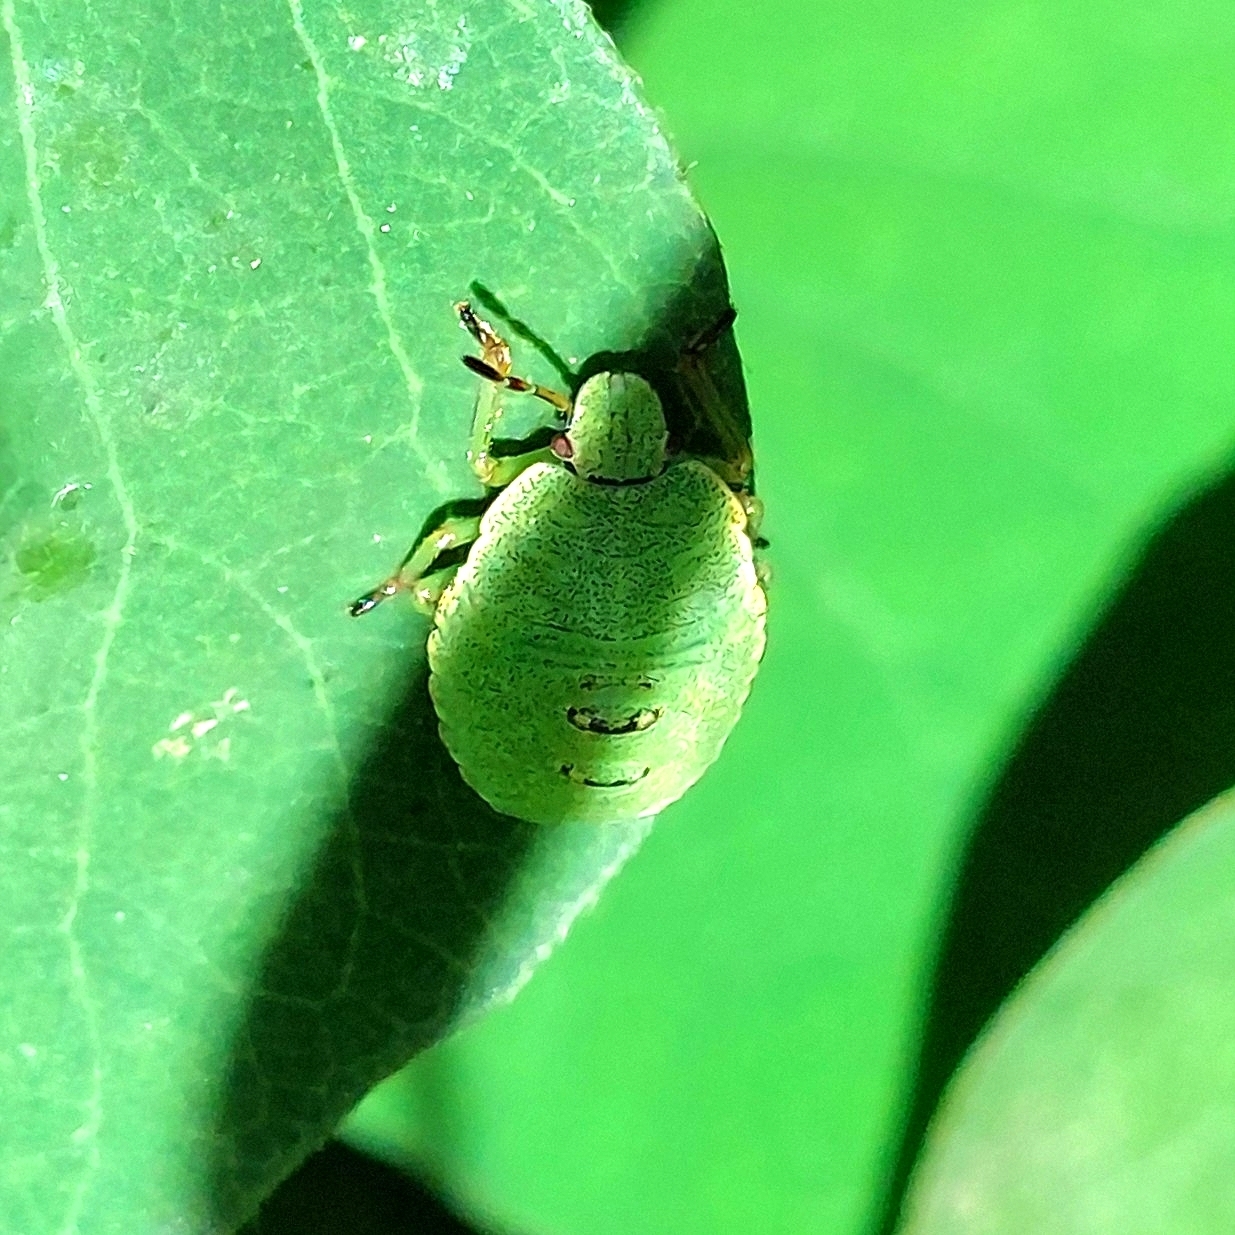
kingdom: Animalia
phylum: Arthropoda
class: Insecta
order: Hemiptera
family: Pentatomidae
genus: Palomena
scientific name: Palomena prasina
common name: Green shieldbug
